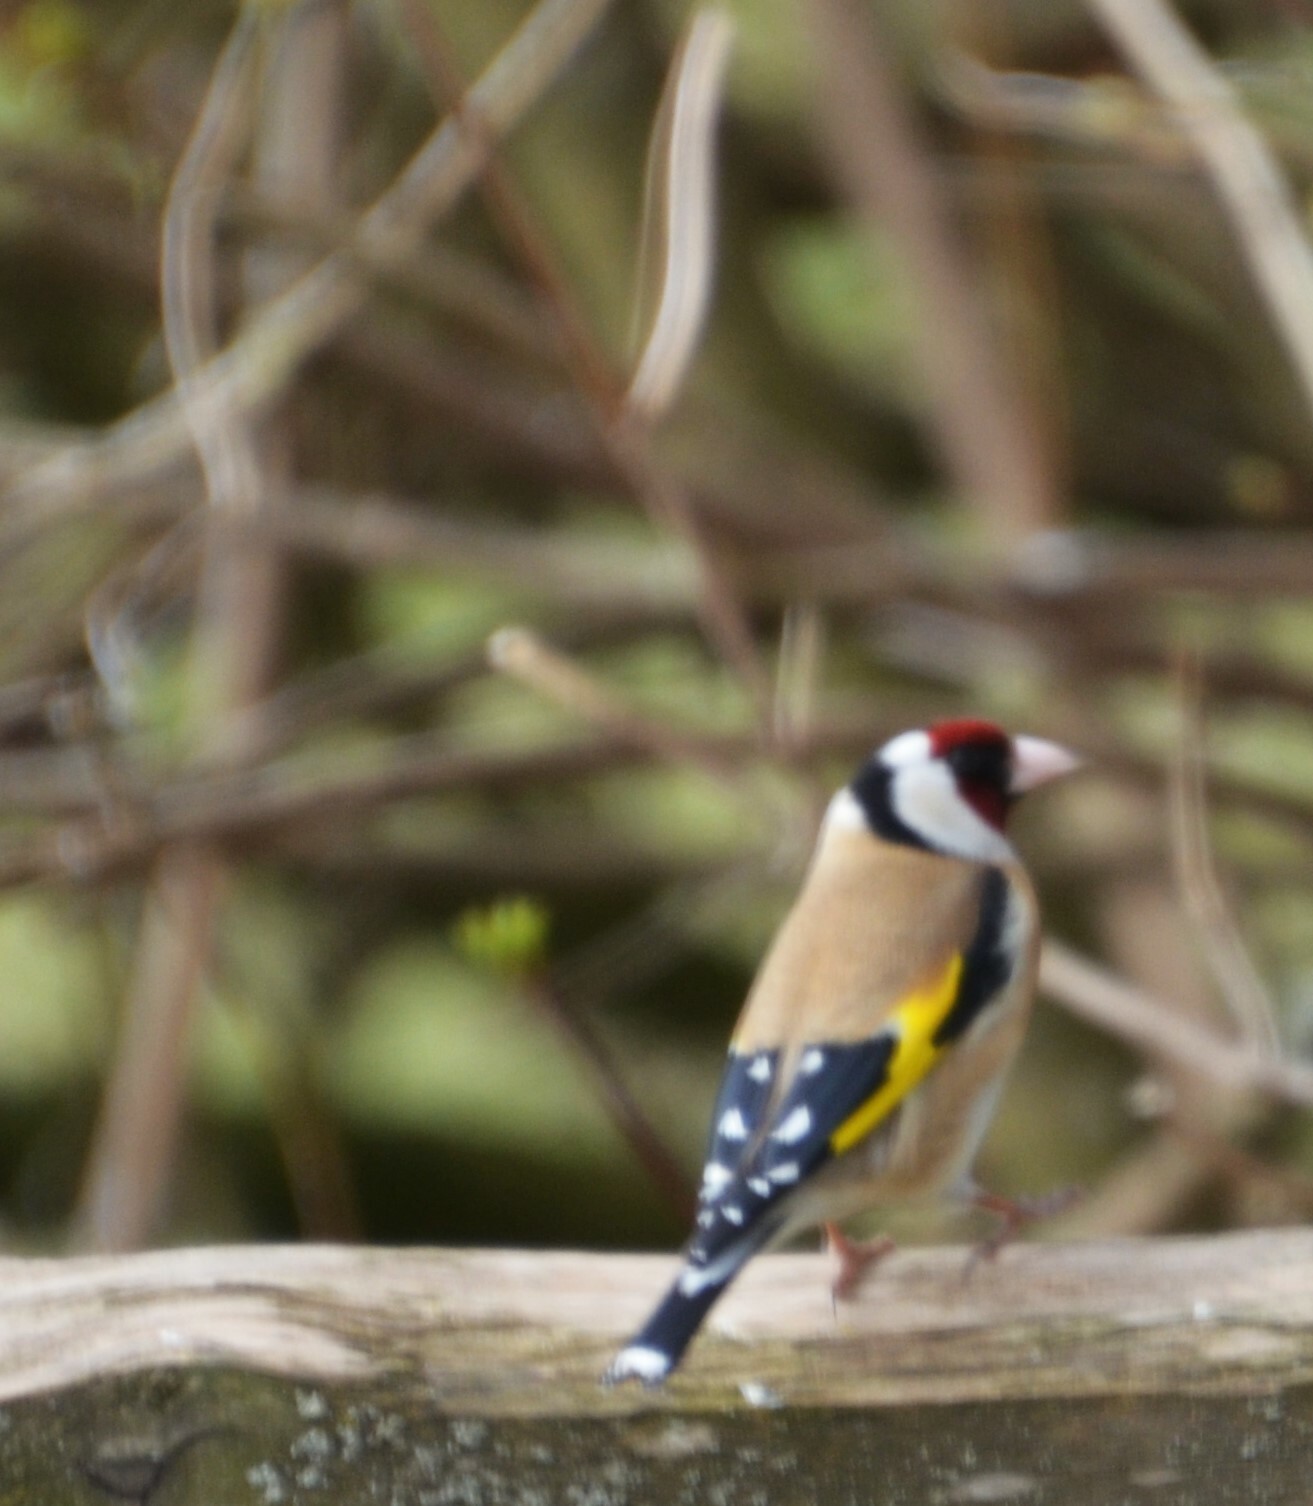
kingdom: Animalia
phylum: Chordata
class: Aves
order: Passeriformes
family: Fringillidae
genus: Carduelis
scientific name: Carduelis carduelis
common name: European goldfinch
